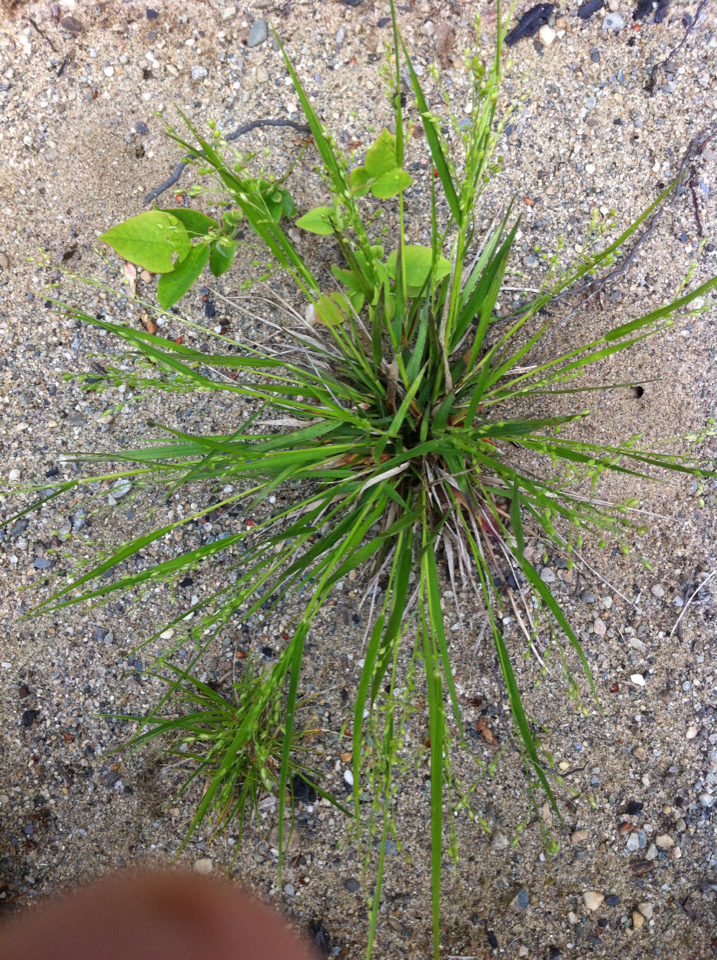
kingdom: Plantae
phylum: Tracheophyta
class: Liliopsida
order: Poales
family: Poaceae
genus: Dichanthelium
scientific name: Dichanthelium depauperatum
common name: Depauperate panicgrass
